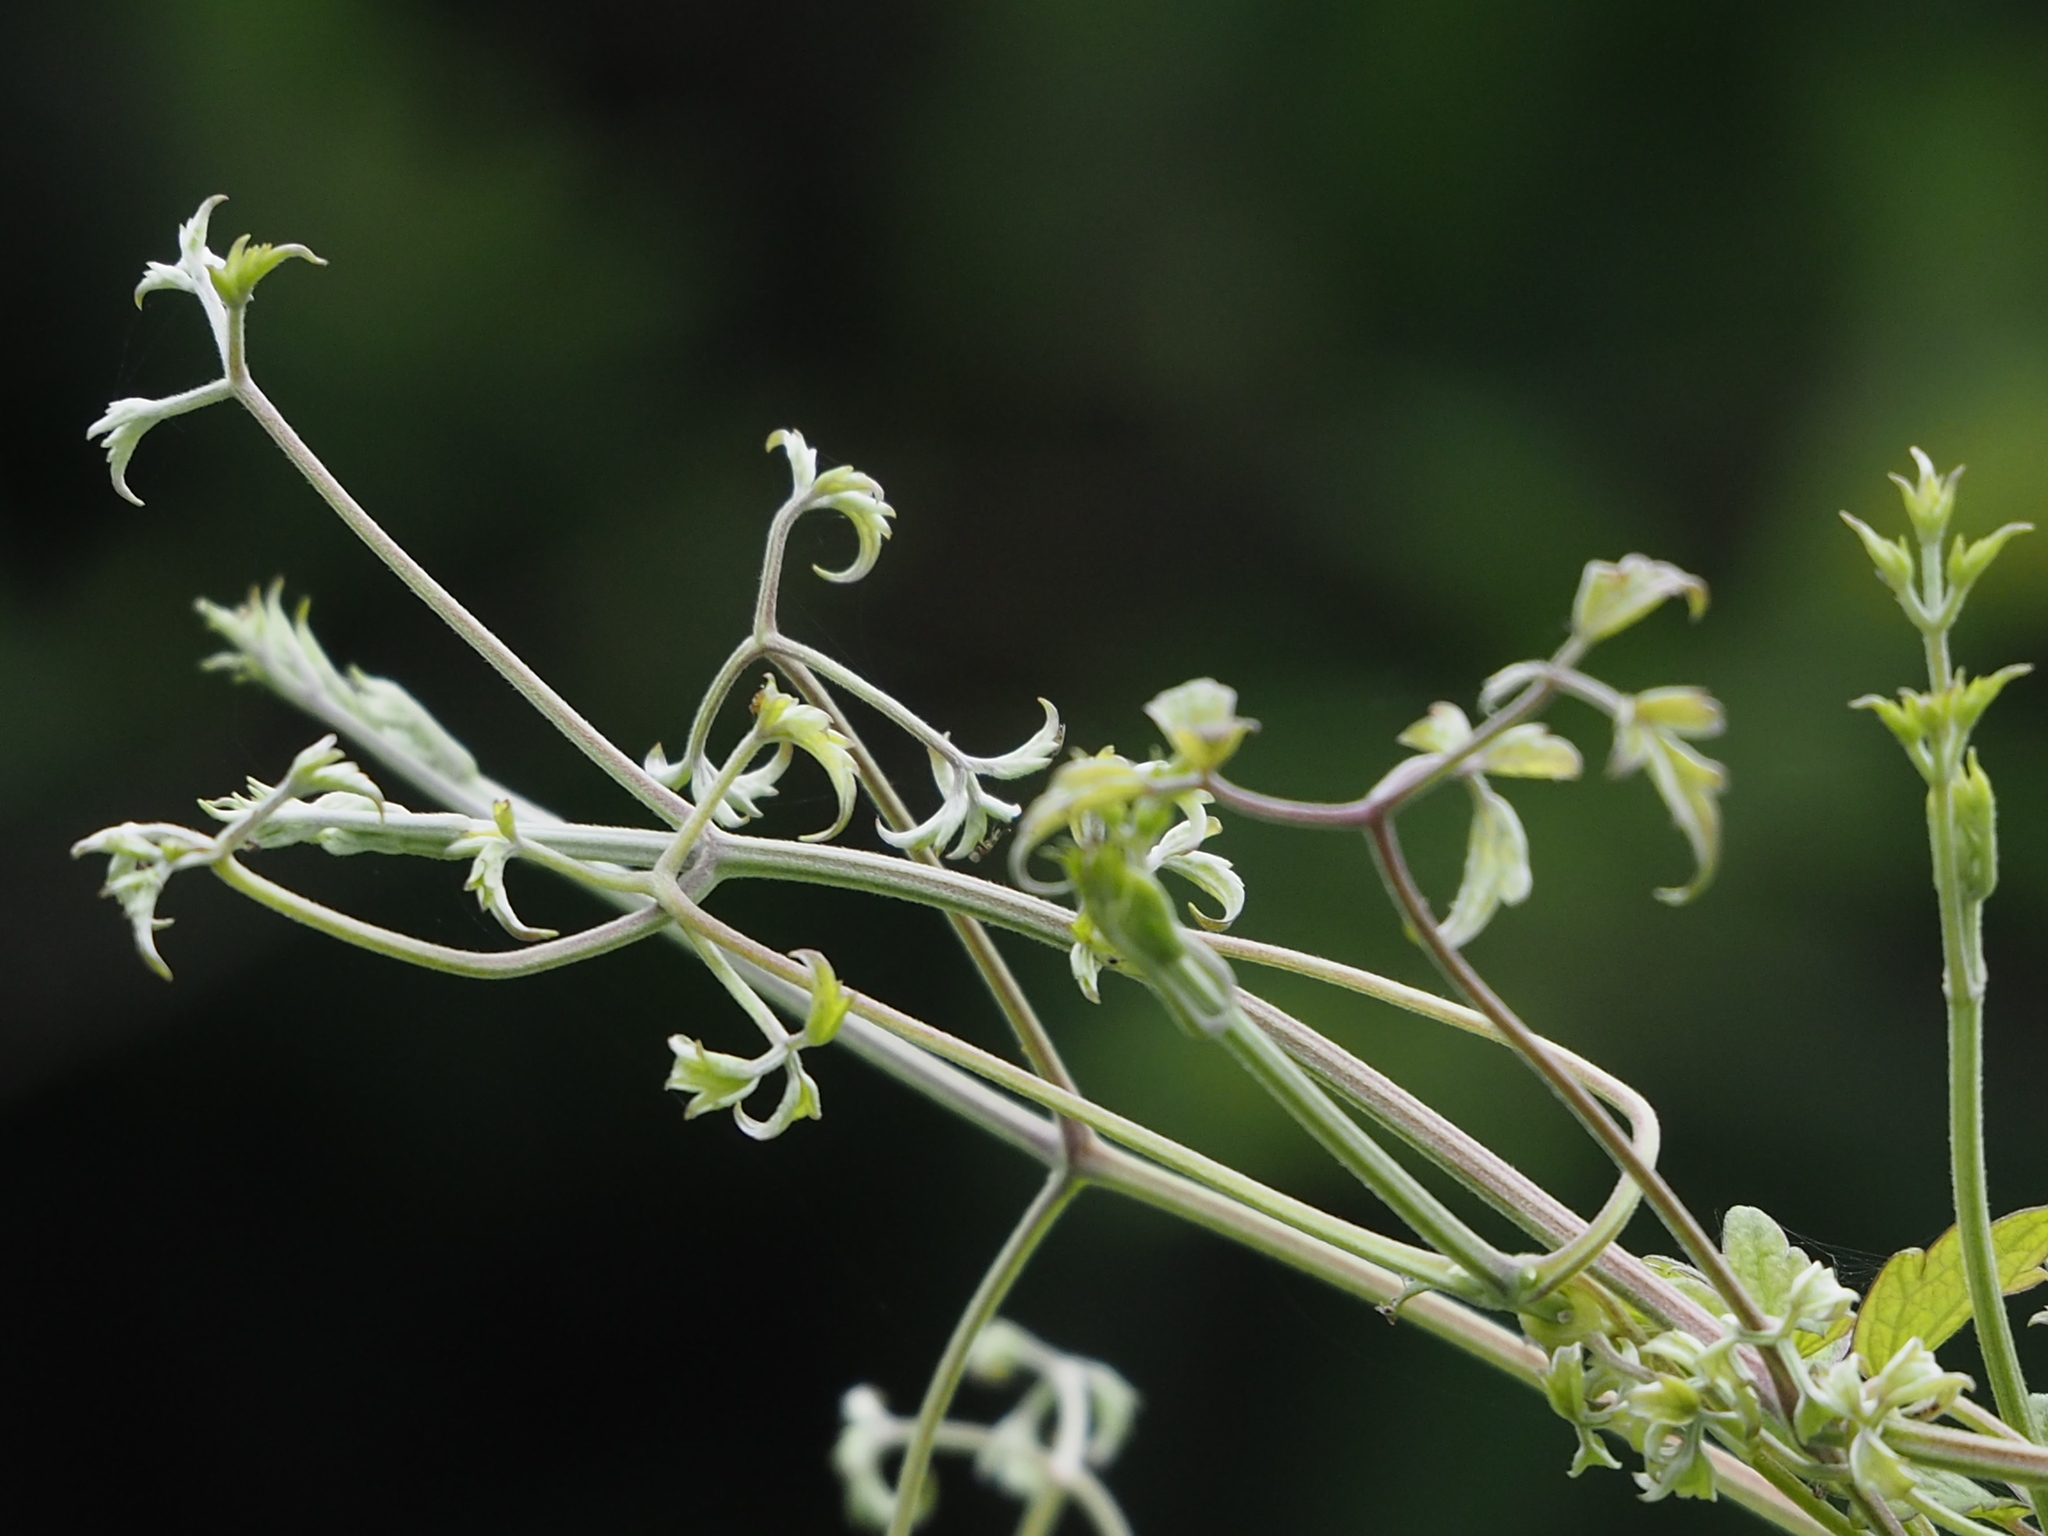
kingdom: Plantae
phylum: Tracheophyta
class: Magnoliopsida
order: Ranunculales
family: Ranunculaceae
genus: Clematis
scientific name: Clematis grata
